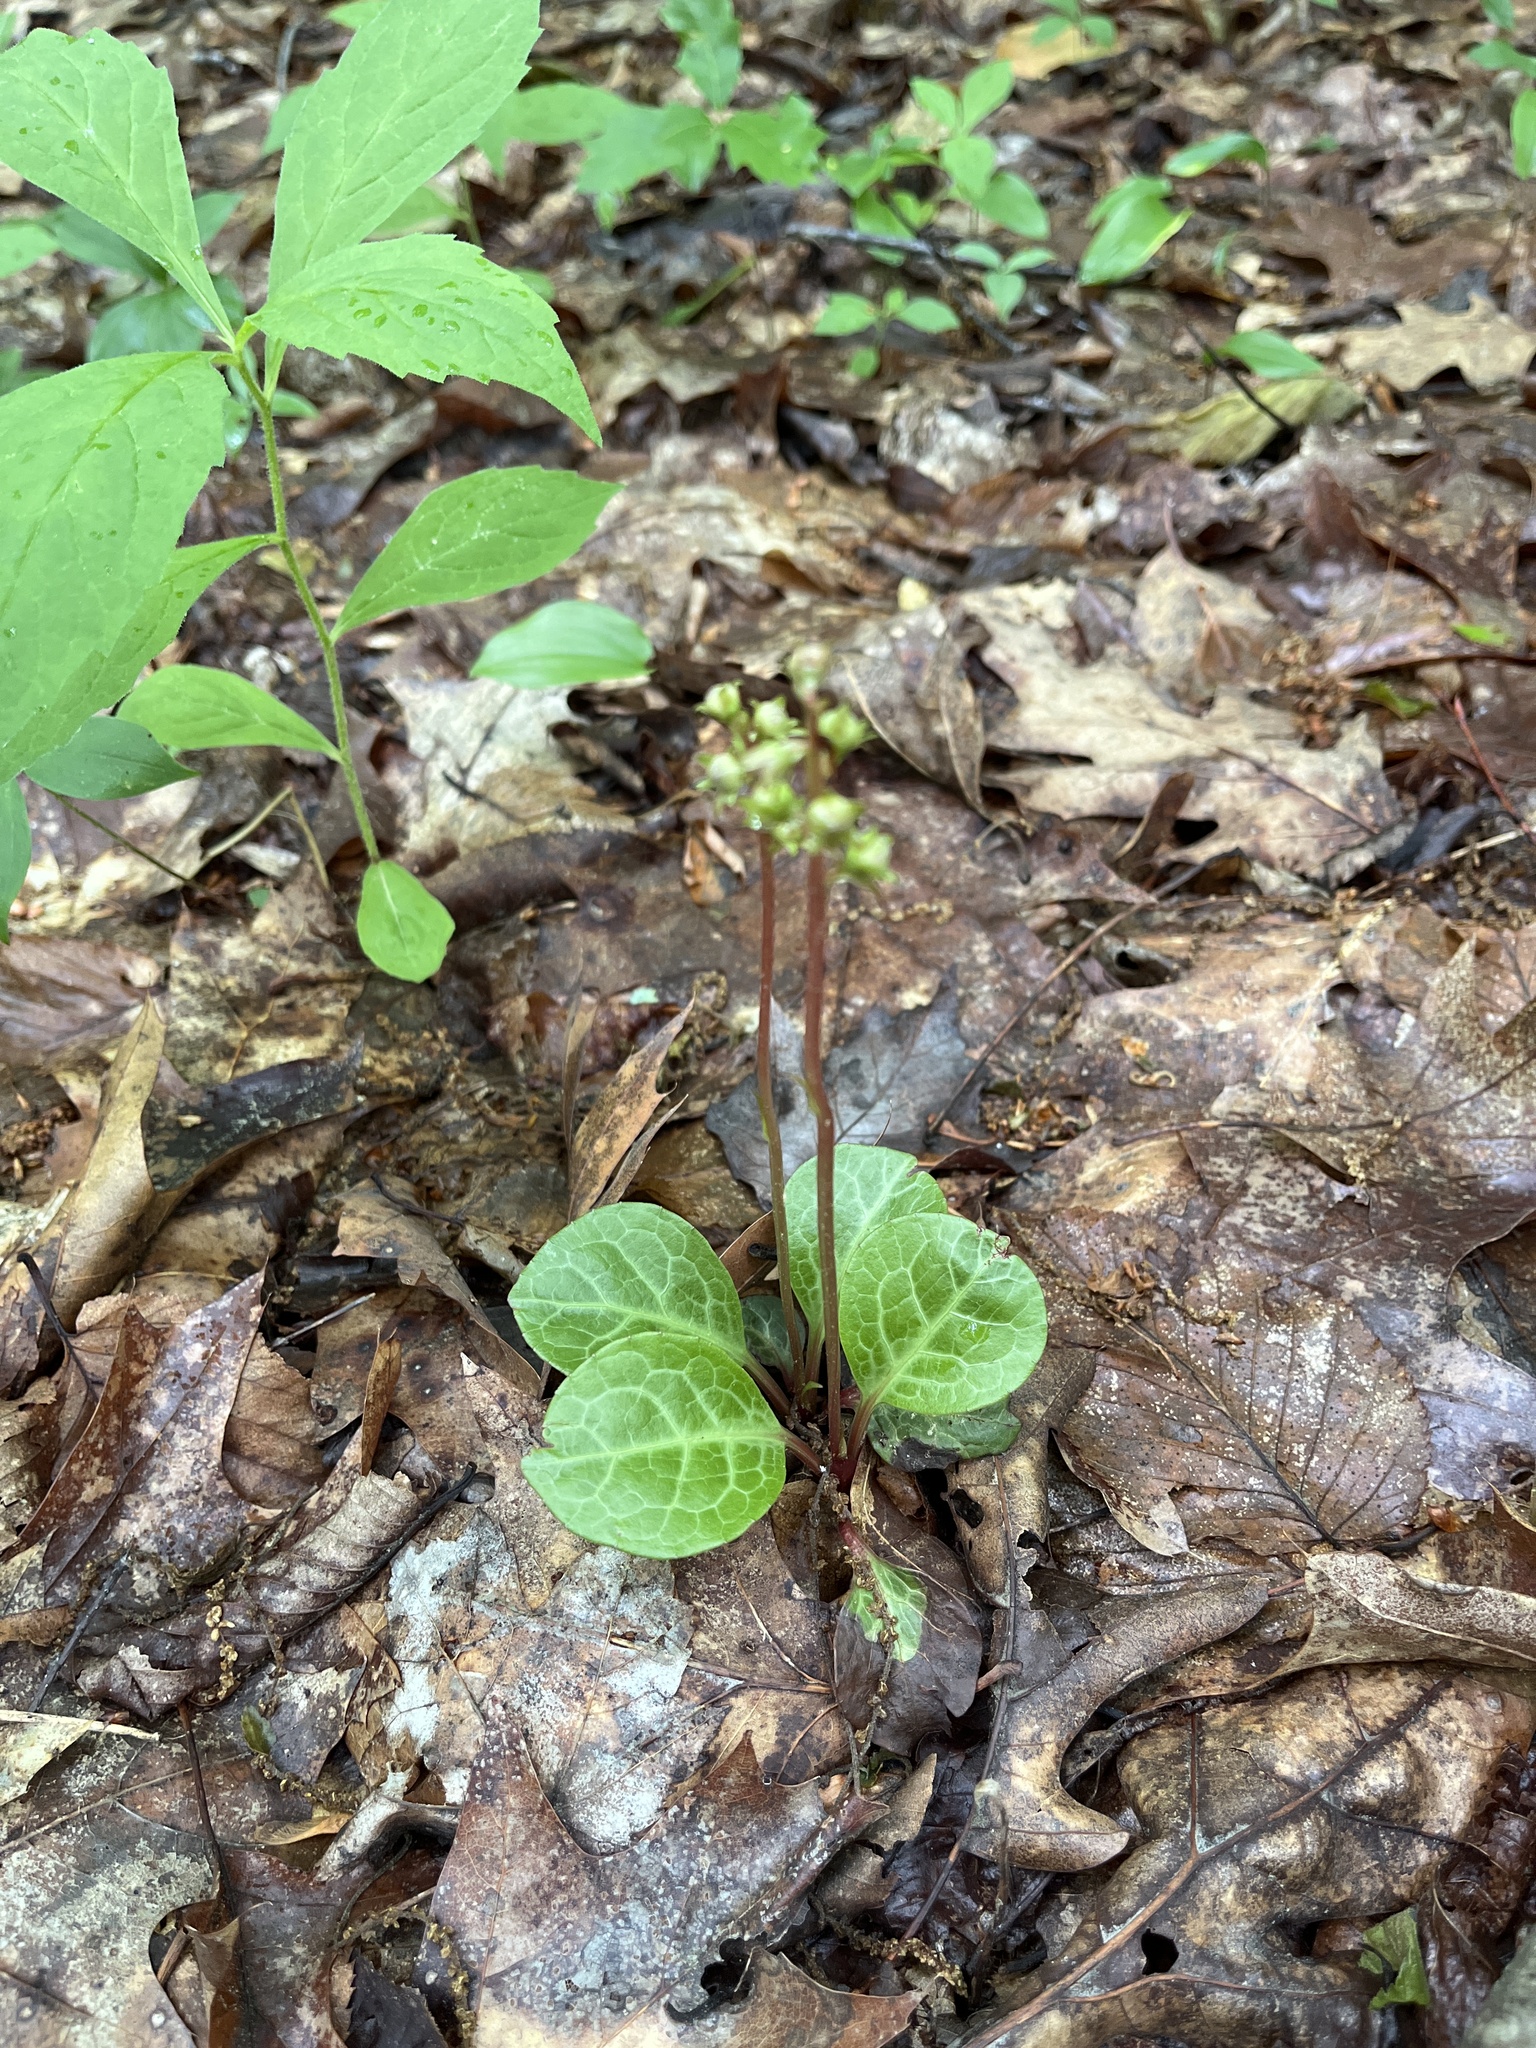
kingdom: Plantae
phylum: Tracheophyta
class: Magnoliopsida
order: Ericales
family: Ericaceae
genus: Pyrola
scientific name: Pyrola americana
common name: American wintergreen
